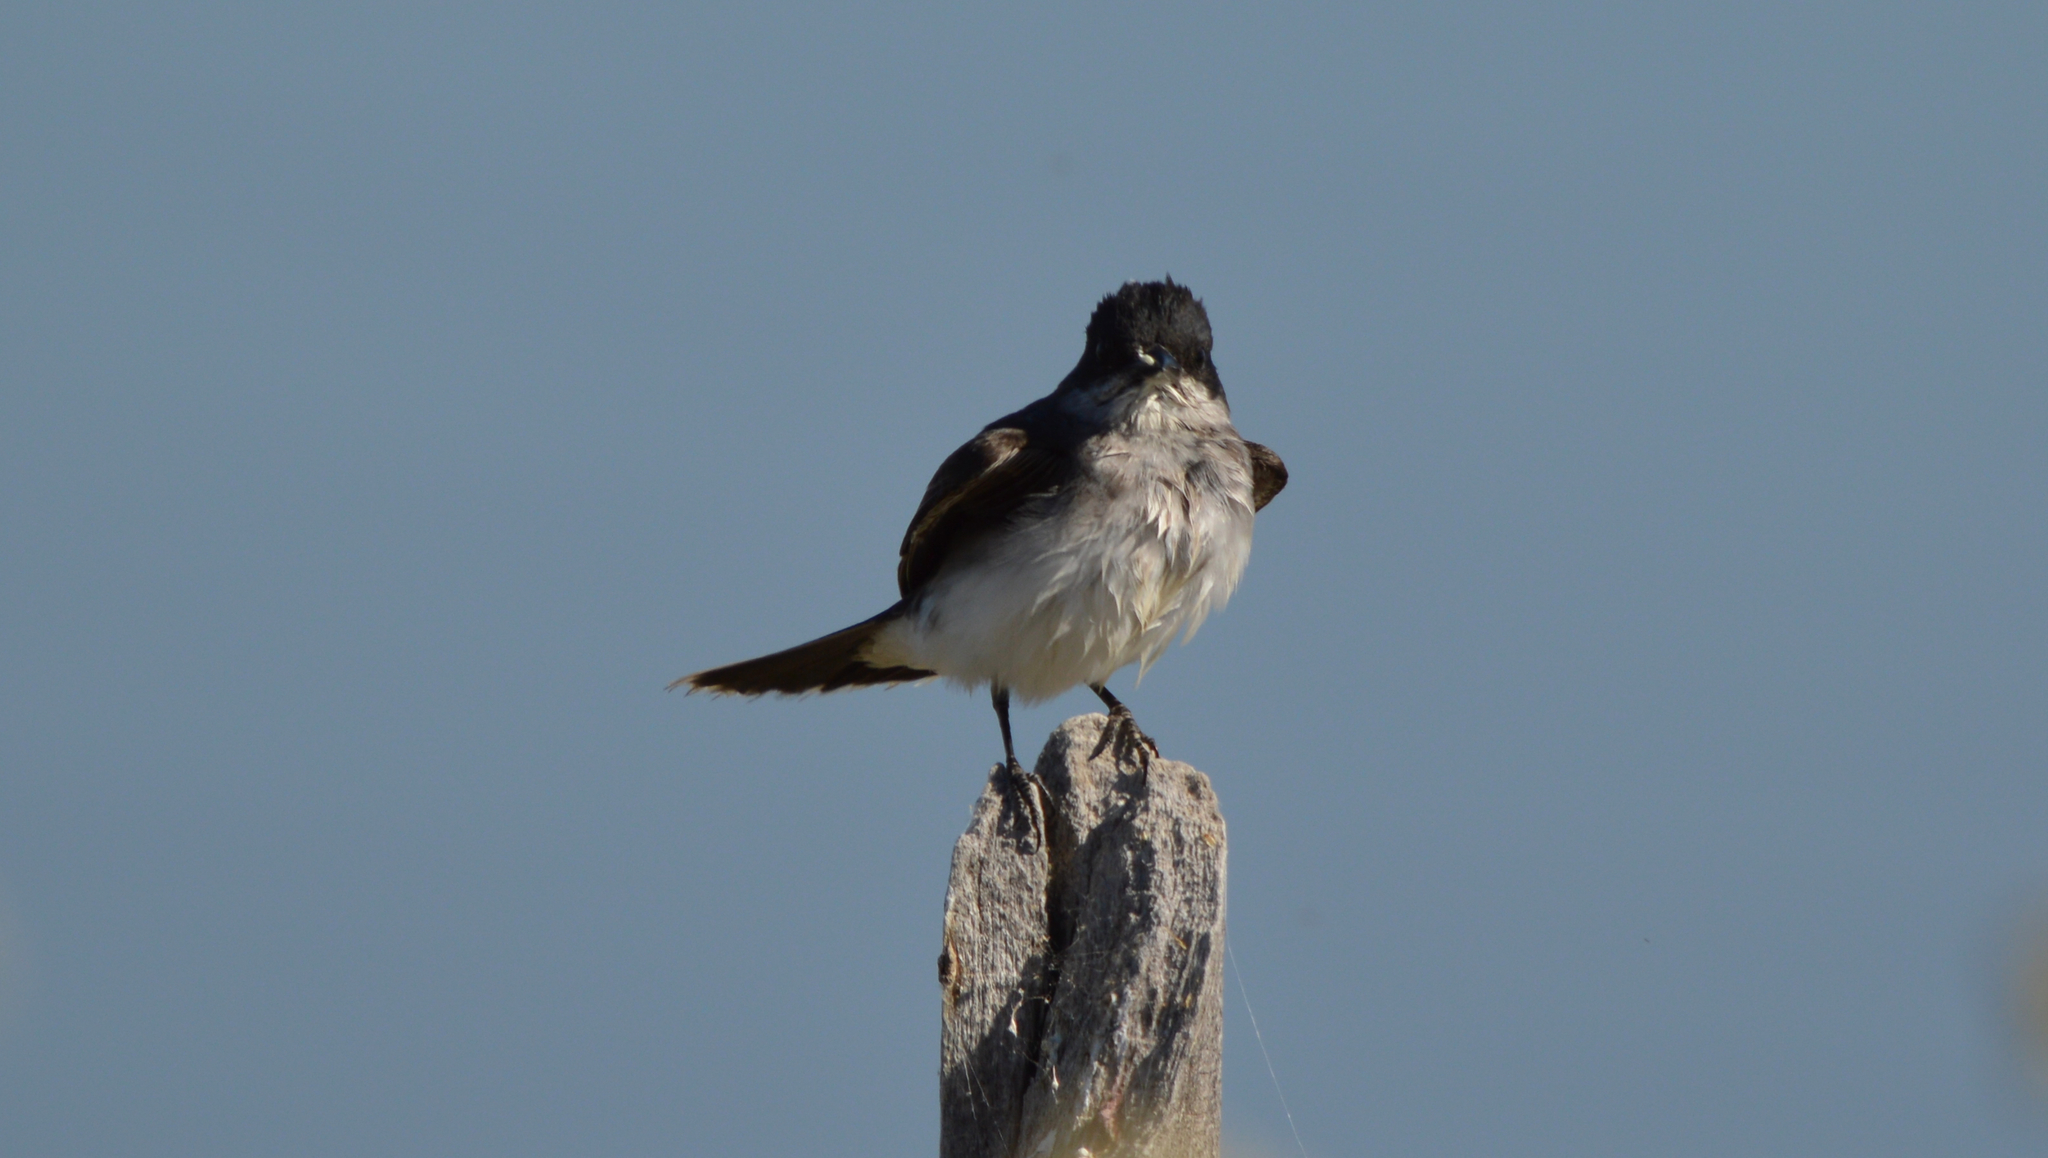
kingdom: Animalia
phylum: Chordata
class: Aves
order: Passeriformes
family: Tyrannidae
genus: Tyrannus
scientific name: Tyrannus tyrannus
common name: Eastern kingbird
